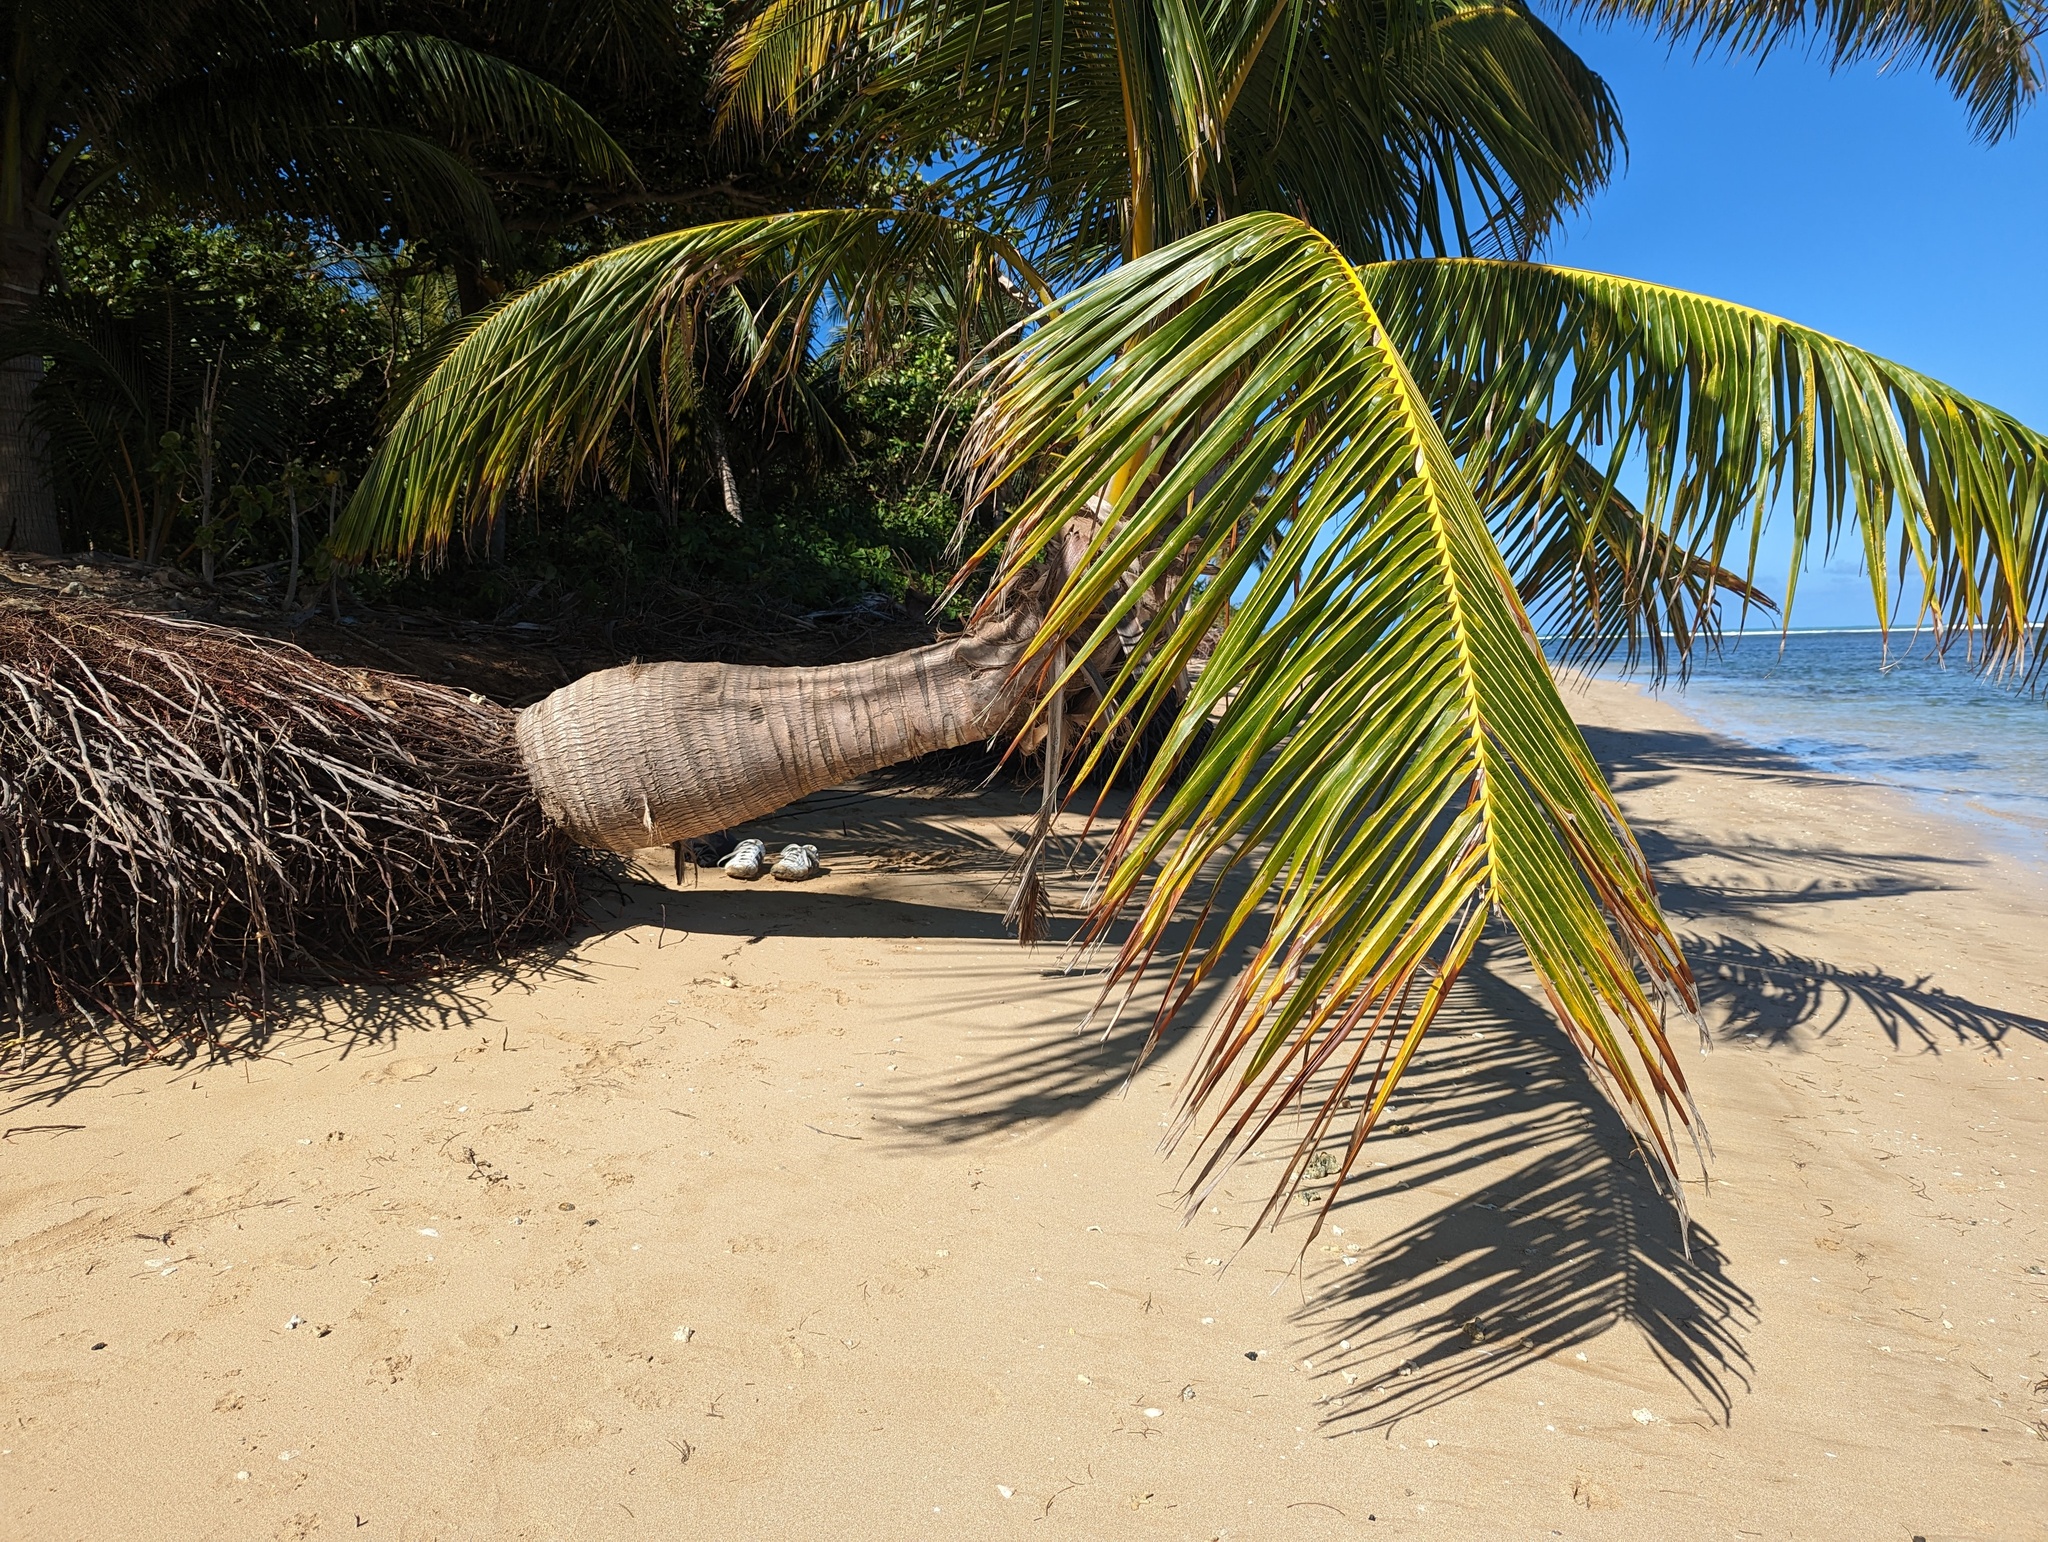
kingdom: Plantae
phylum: Tracheophyta
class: Liliopsida
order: Arecales
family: Arecaceae
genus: Cocos
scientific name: Cocos nucifera
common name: Coconut palm
